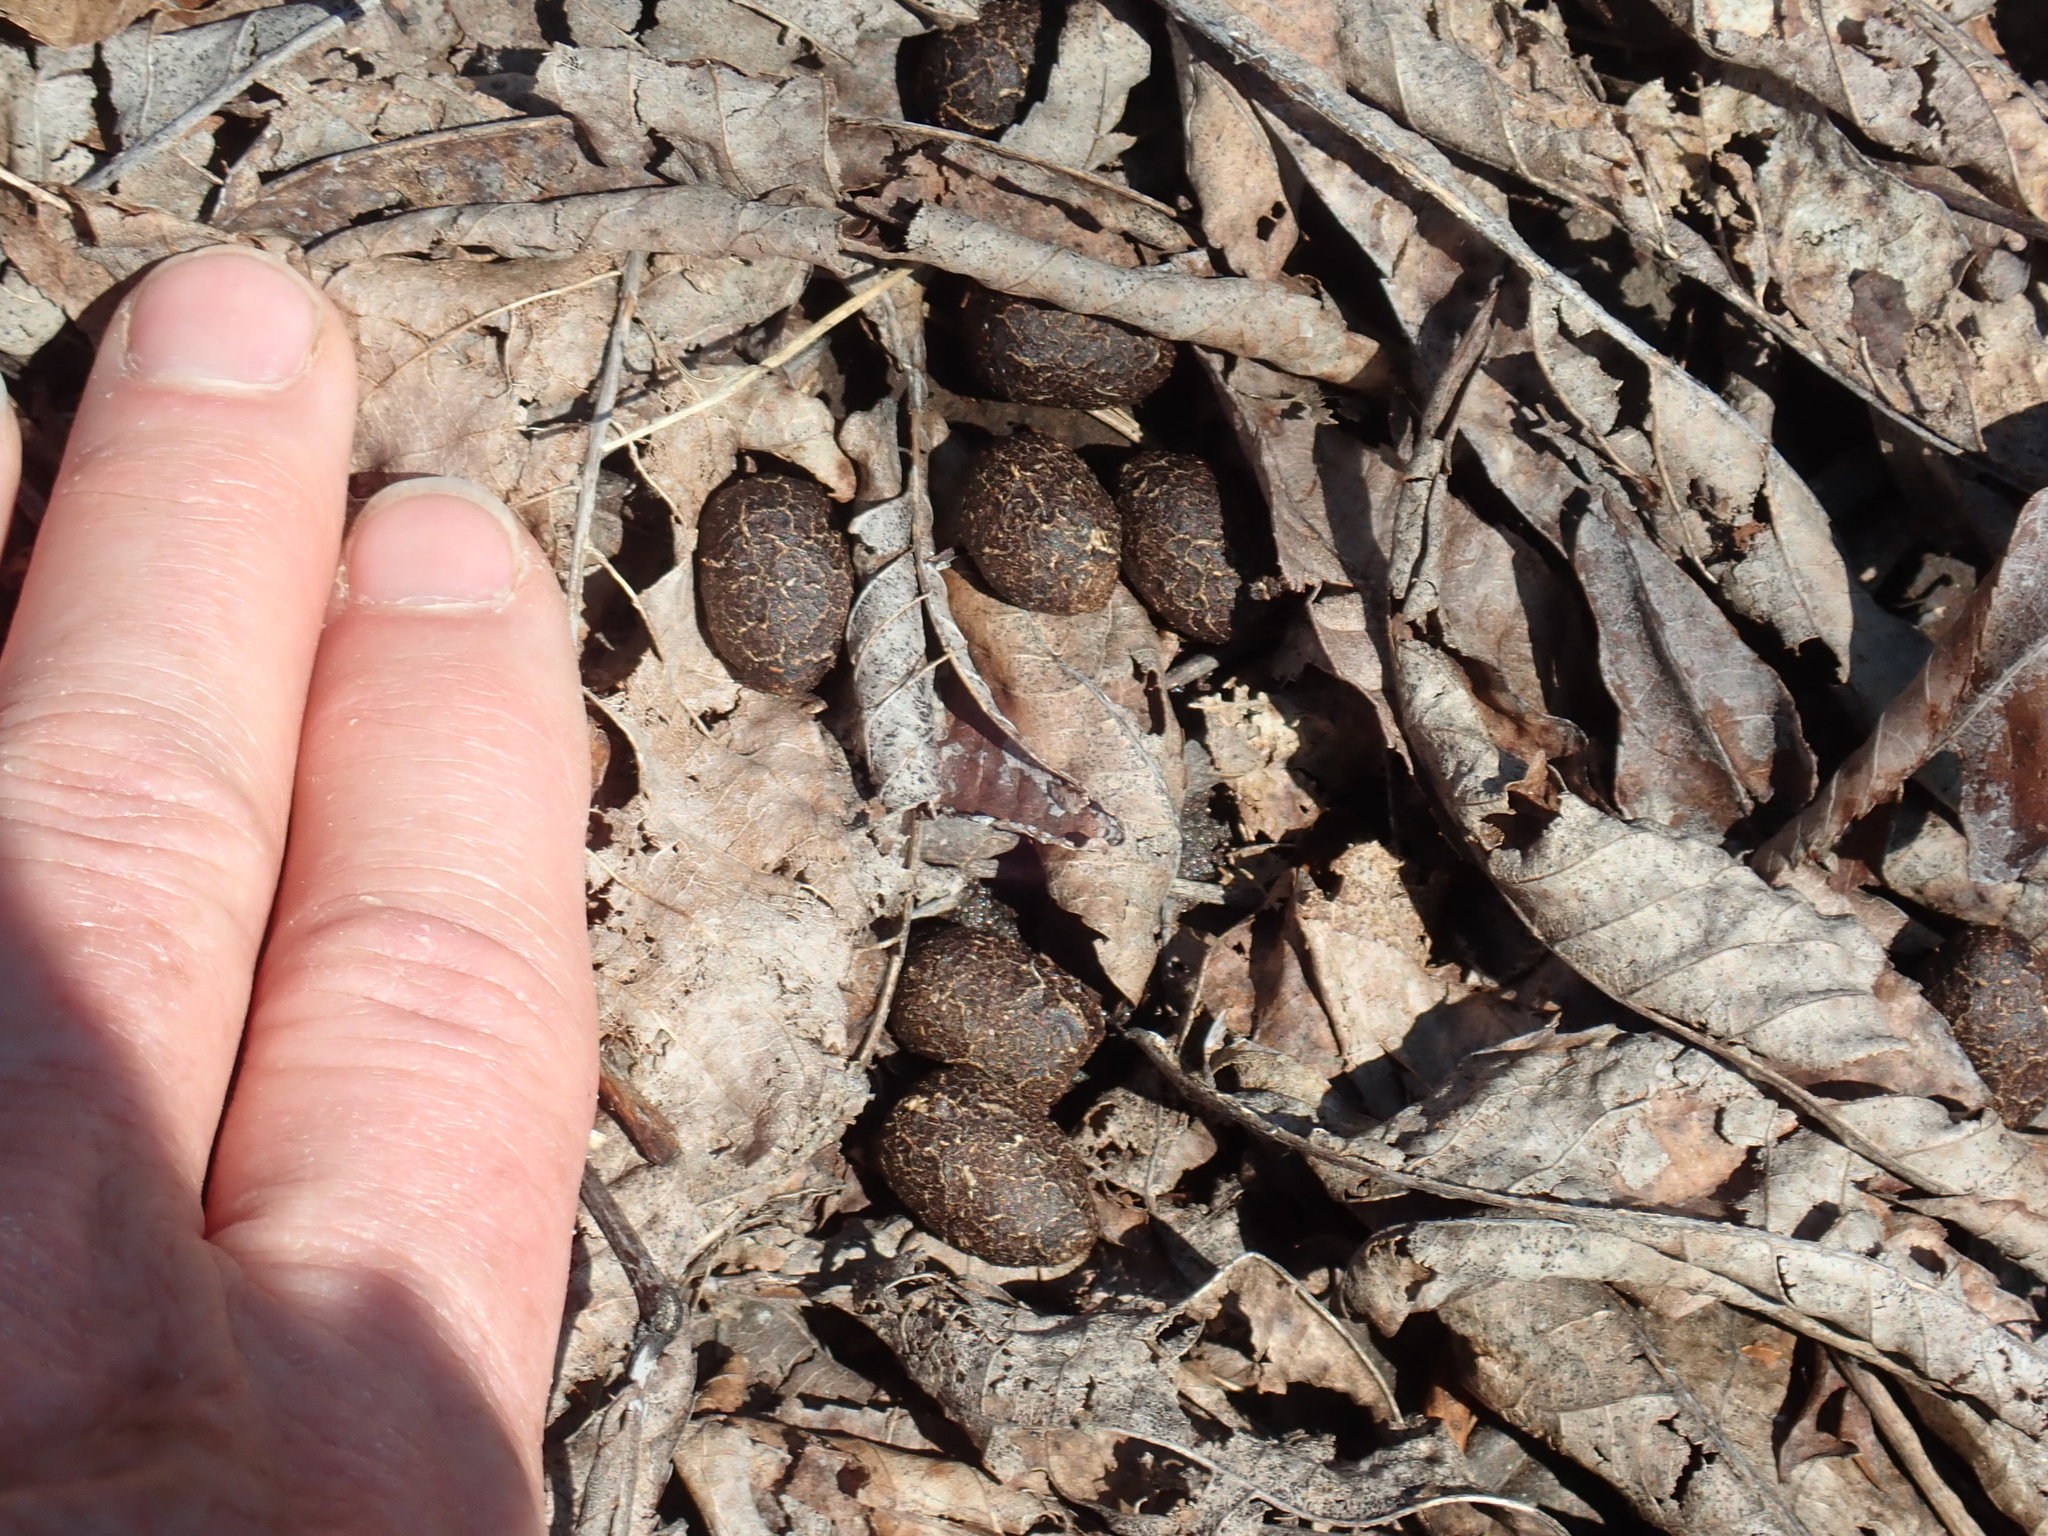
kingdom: Animalia
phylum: Chordata
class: Mammalia
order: Artiodactyla
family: Cervidae
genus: Odocoileus
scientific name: Odocoileus virginianus
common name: White-tailed deer
